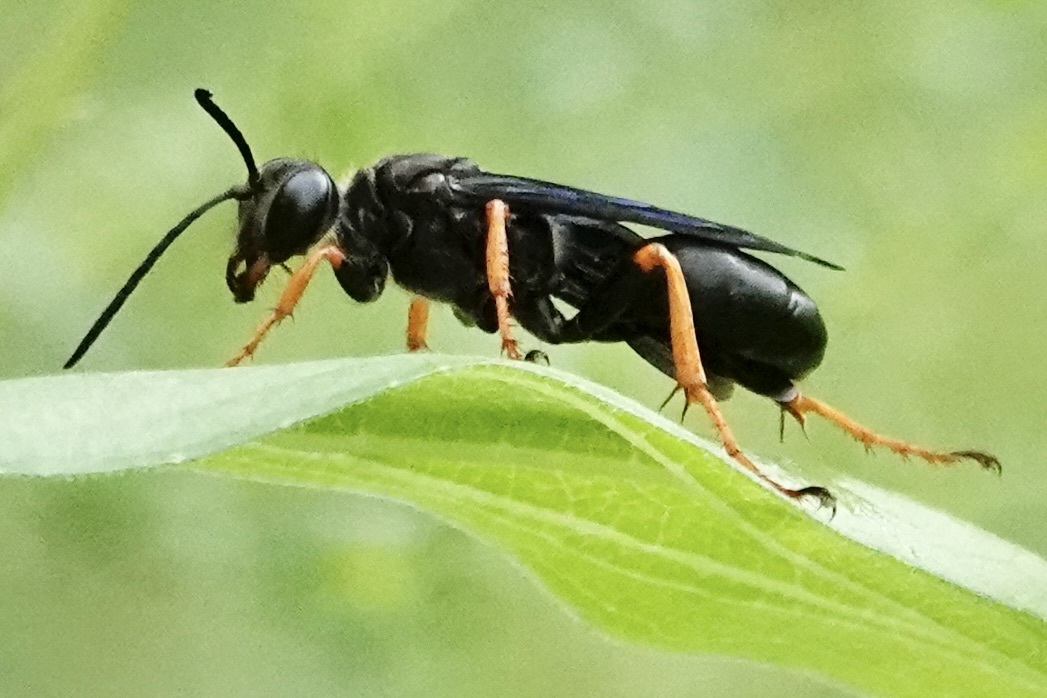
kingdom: Animalia
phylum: Arthropoda
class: Insecta
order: Hymenoptera
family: Sphecidae
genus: Sphex
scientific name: Sphex nudus
